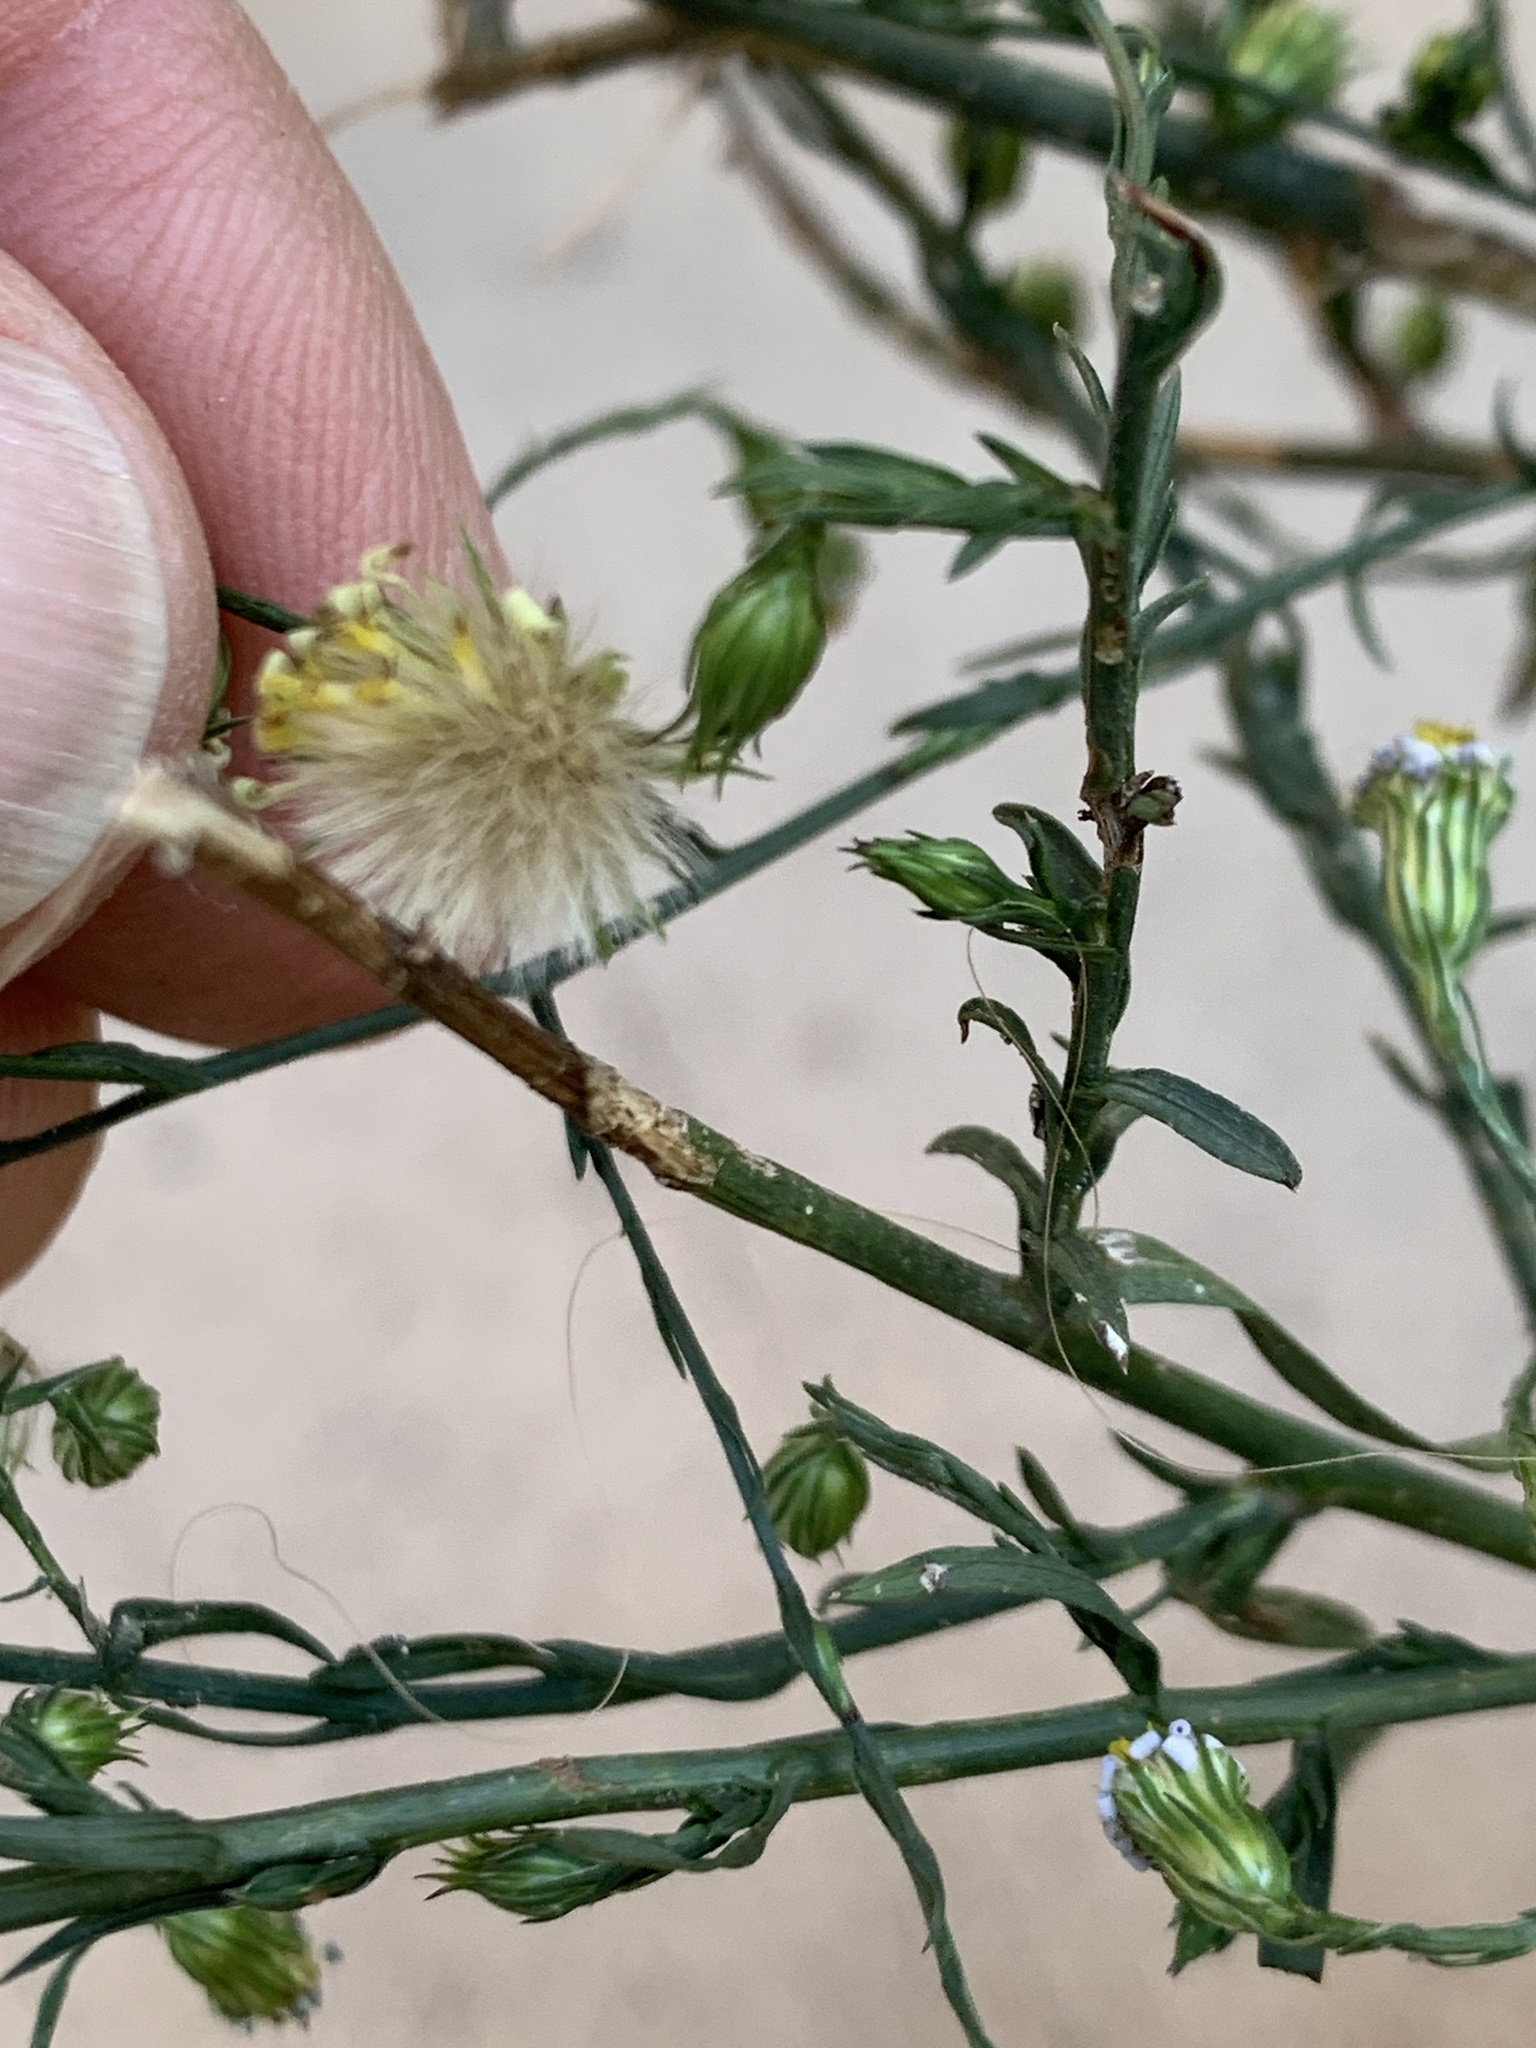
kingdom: Plantae
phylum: Tracheophyta
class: Magnoliopsida
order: Asterales
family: Asteraceae
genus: Symphyotrichum
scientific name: Symphyotrichum divaricatum
